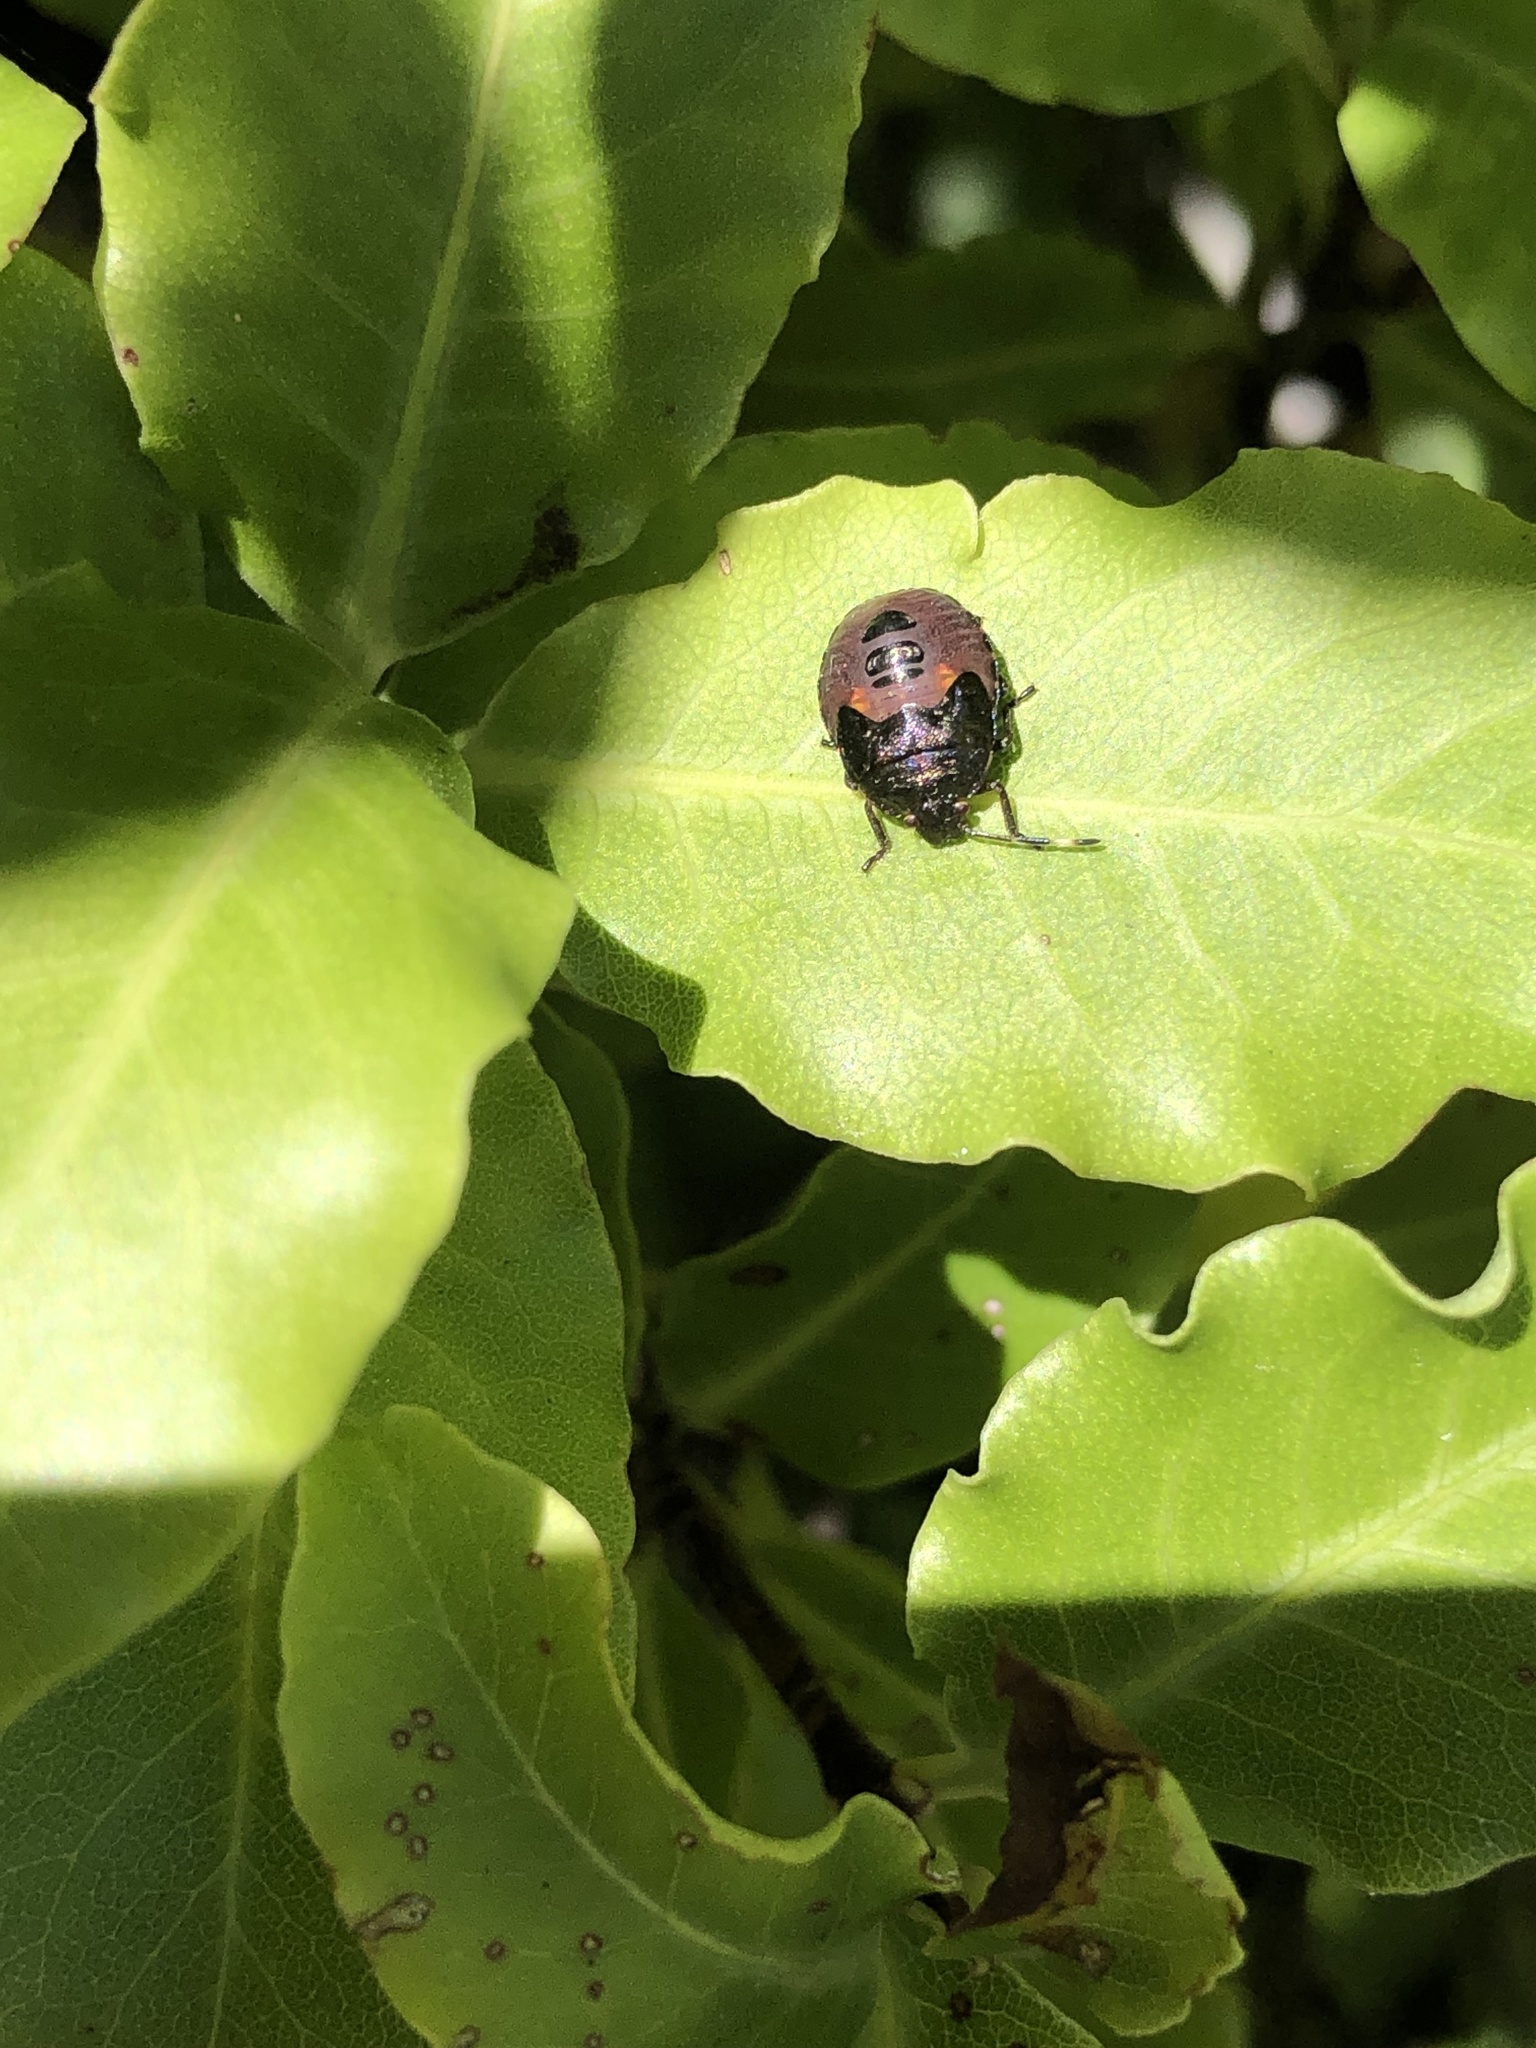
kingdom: Animalia
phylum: Arthropoda
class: Insecta
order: Hemiptera
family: Pentatomidae
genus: Monteithiella
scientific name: Monteithiella
